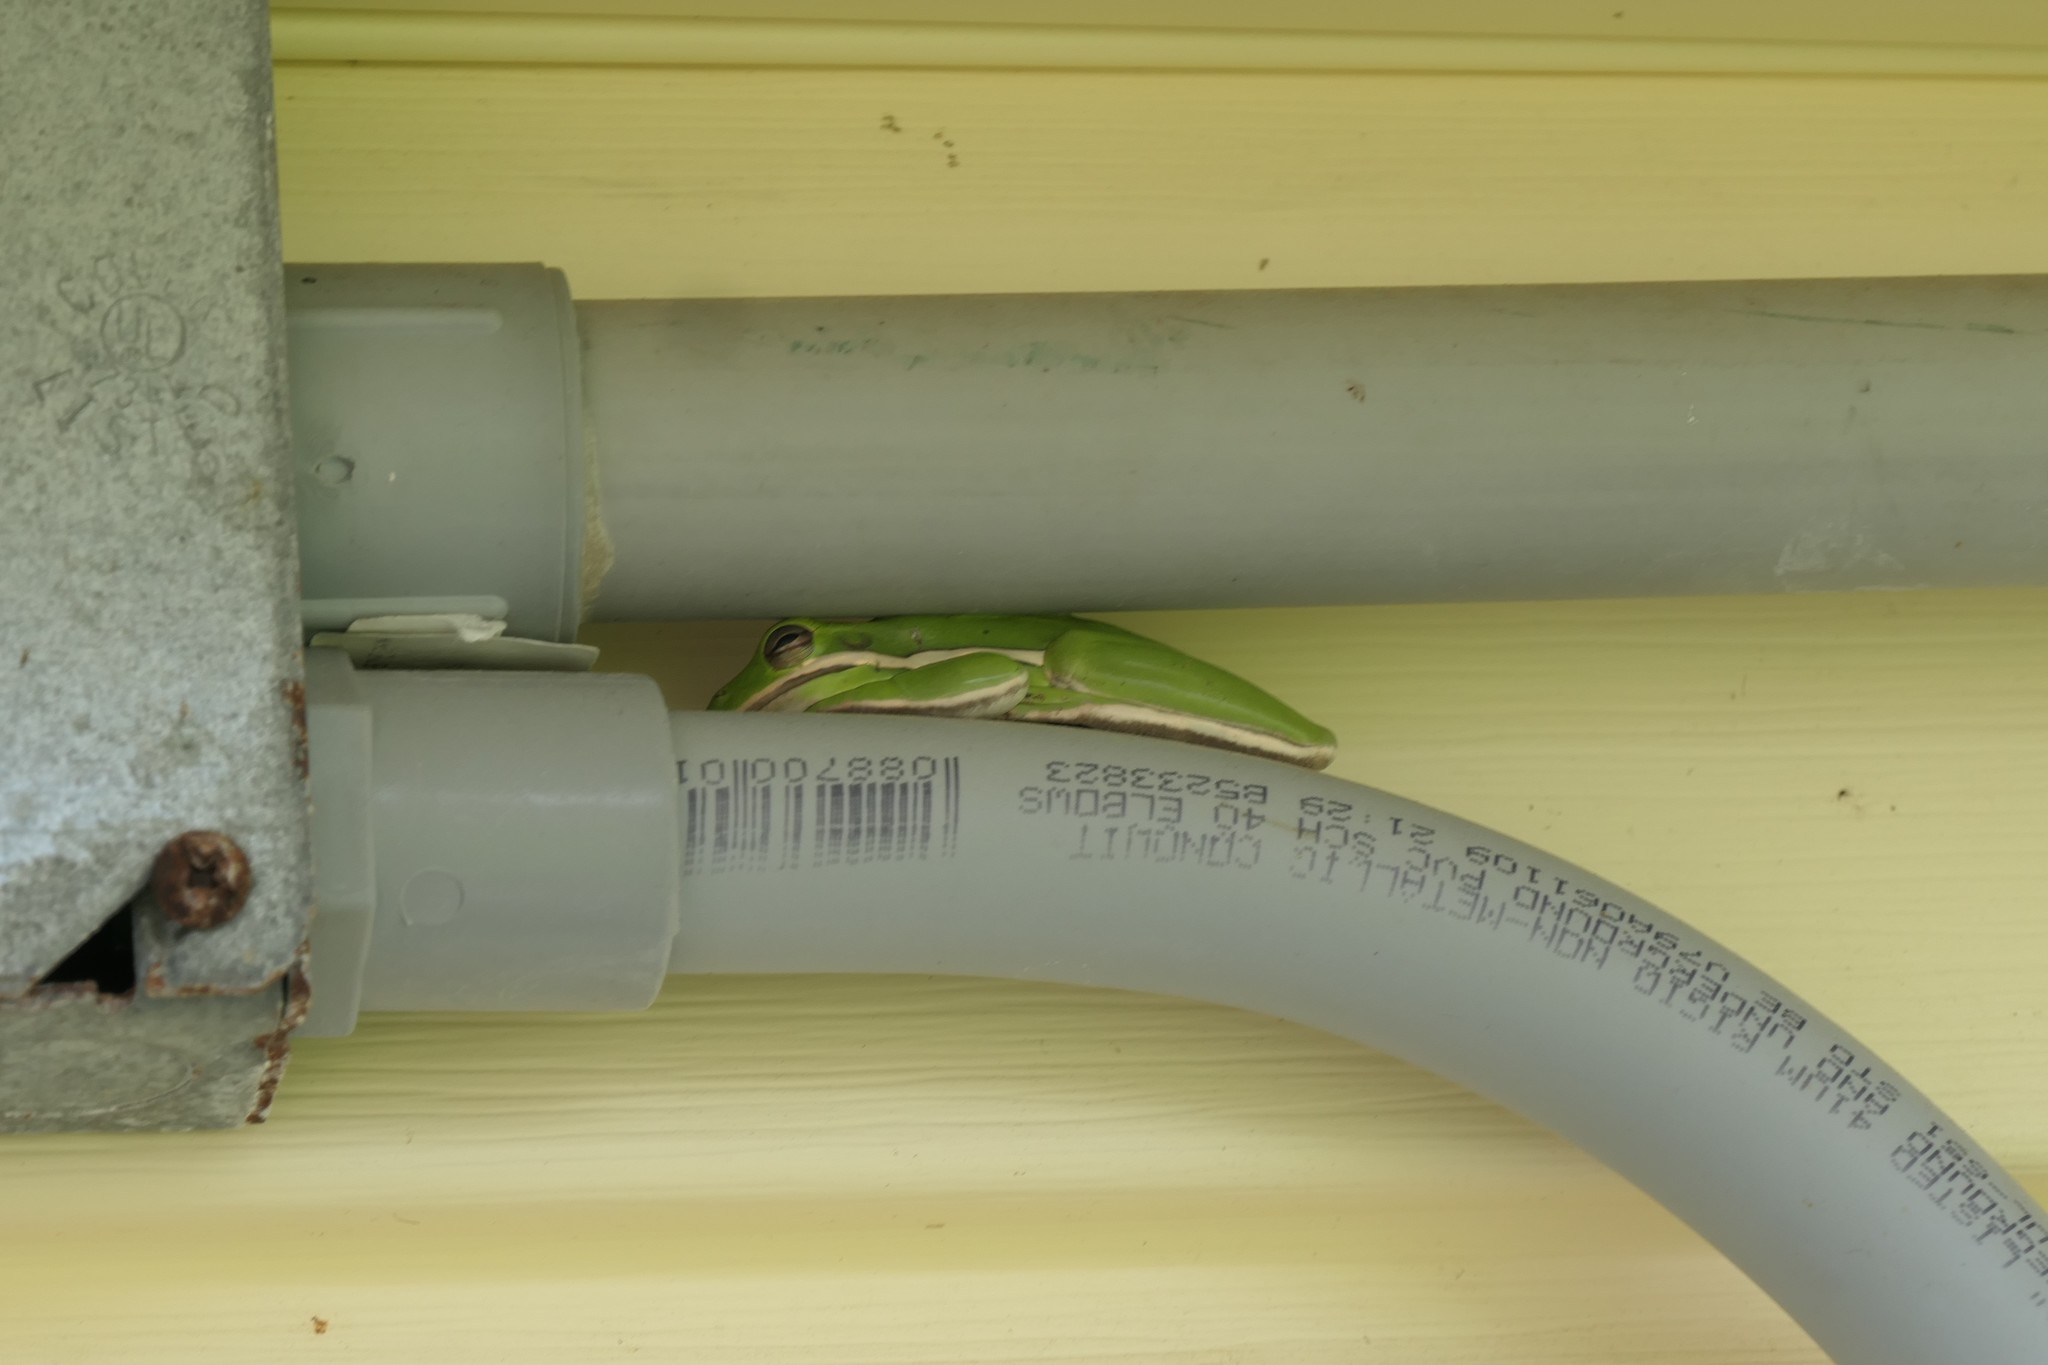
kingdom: Animalia
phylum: Chordata
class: Amphibia
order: Anura
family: Hylidae
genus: Dryophytes
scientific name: Dryophytes cinereus
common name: Green treefrog
